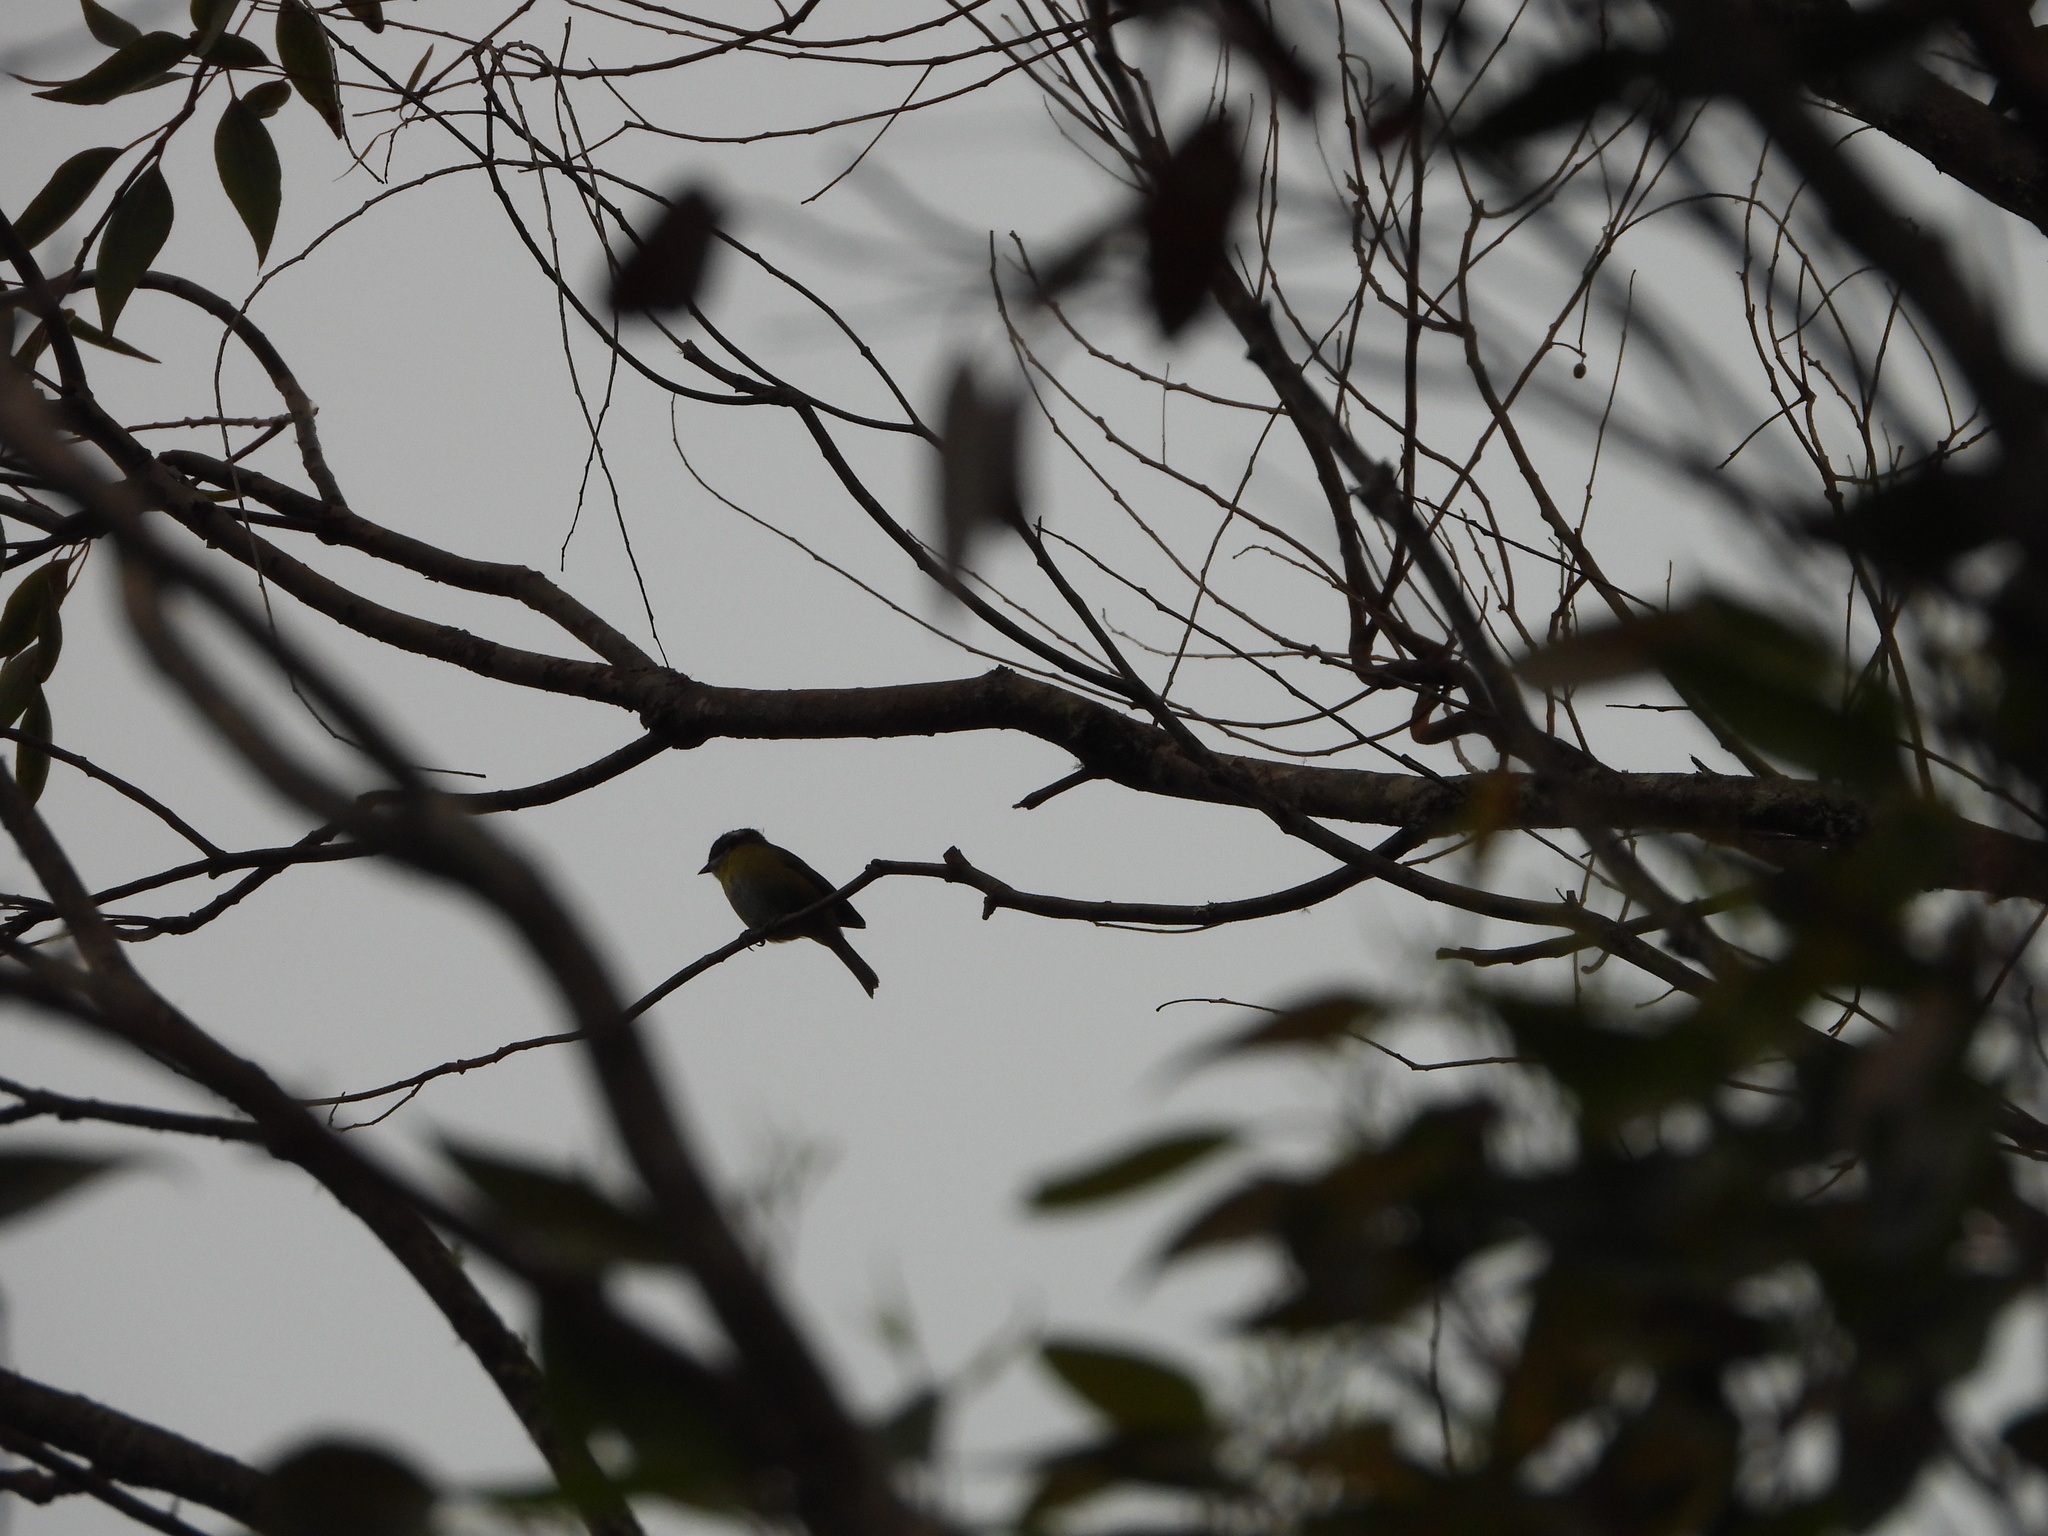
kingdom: Animalia
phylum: Chordata
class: Aves
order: Passeriformes
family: Passerellidae
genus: Chlorospingus
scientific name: Chlorospingus pileatus
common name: Sooty-capped bush-tanager
